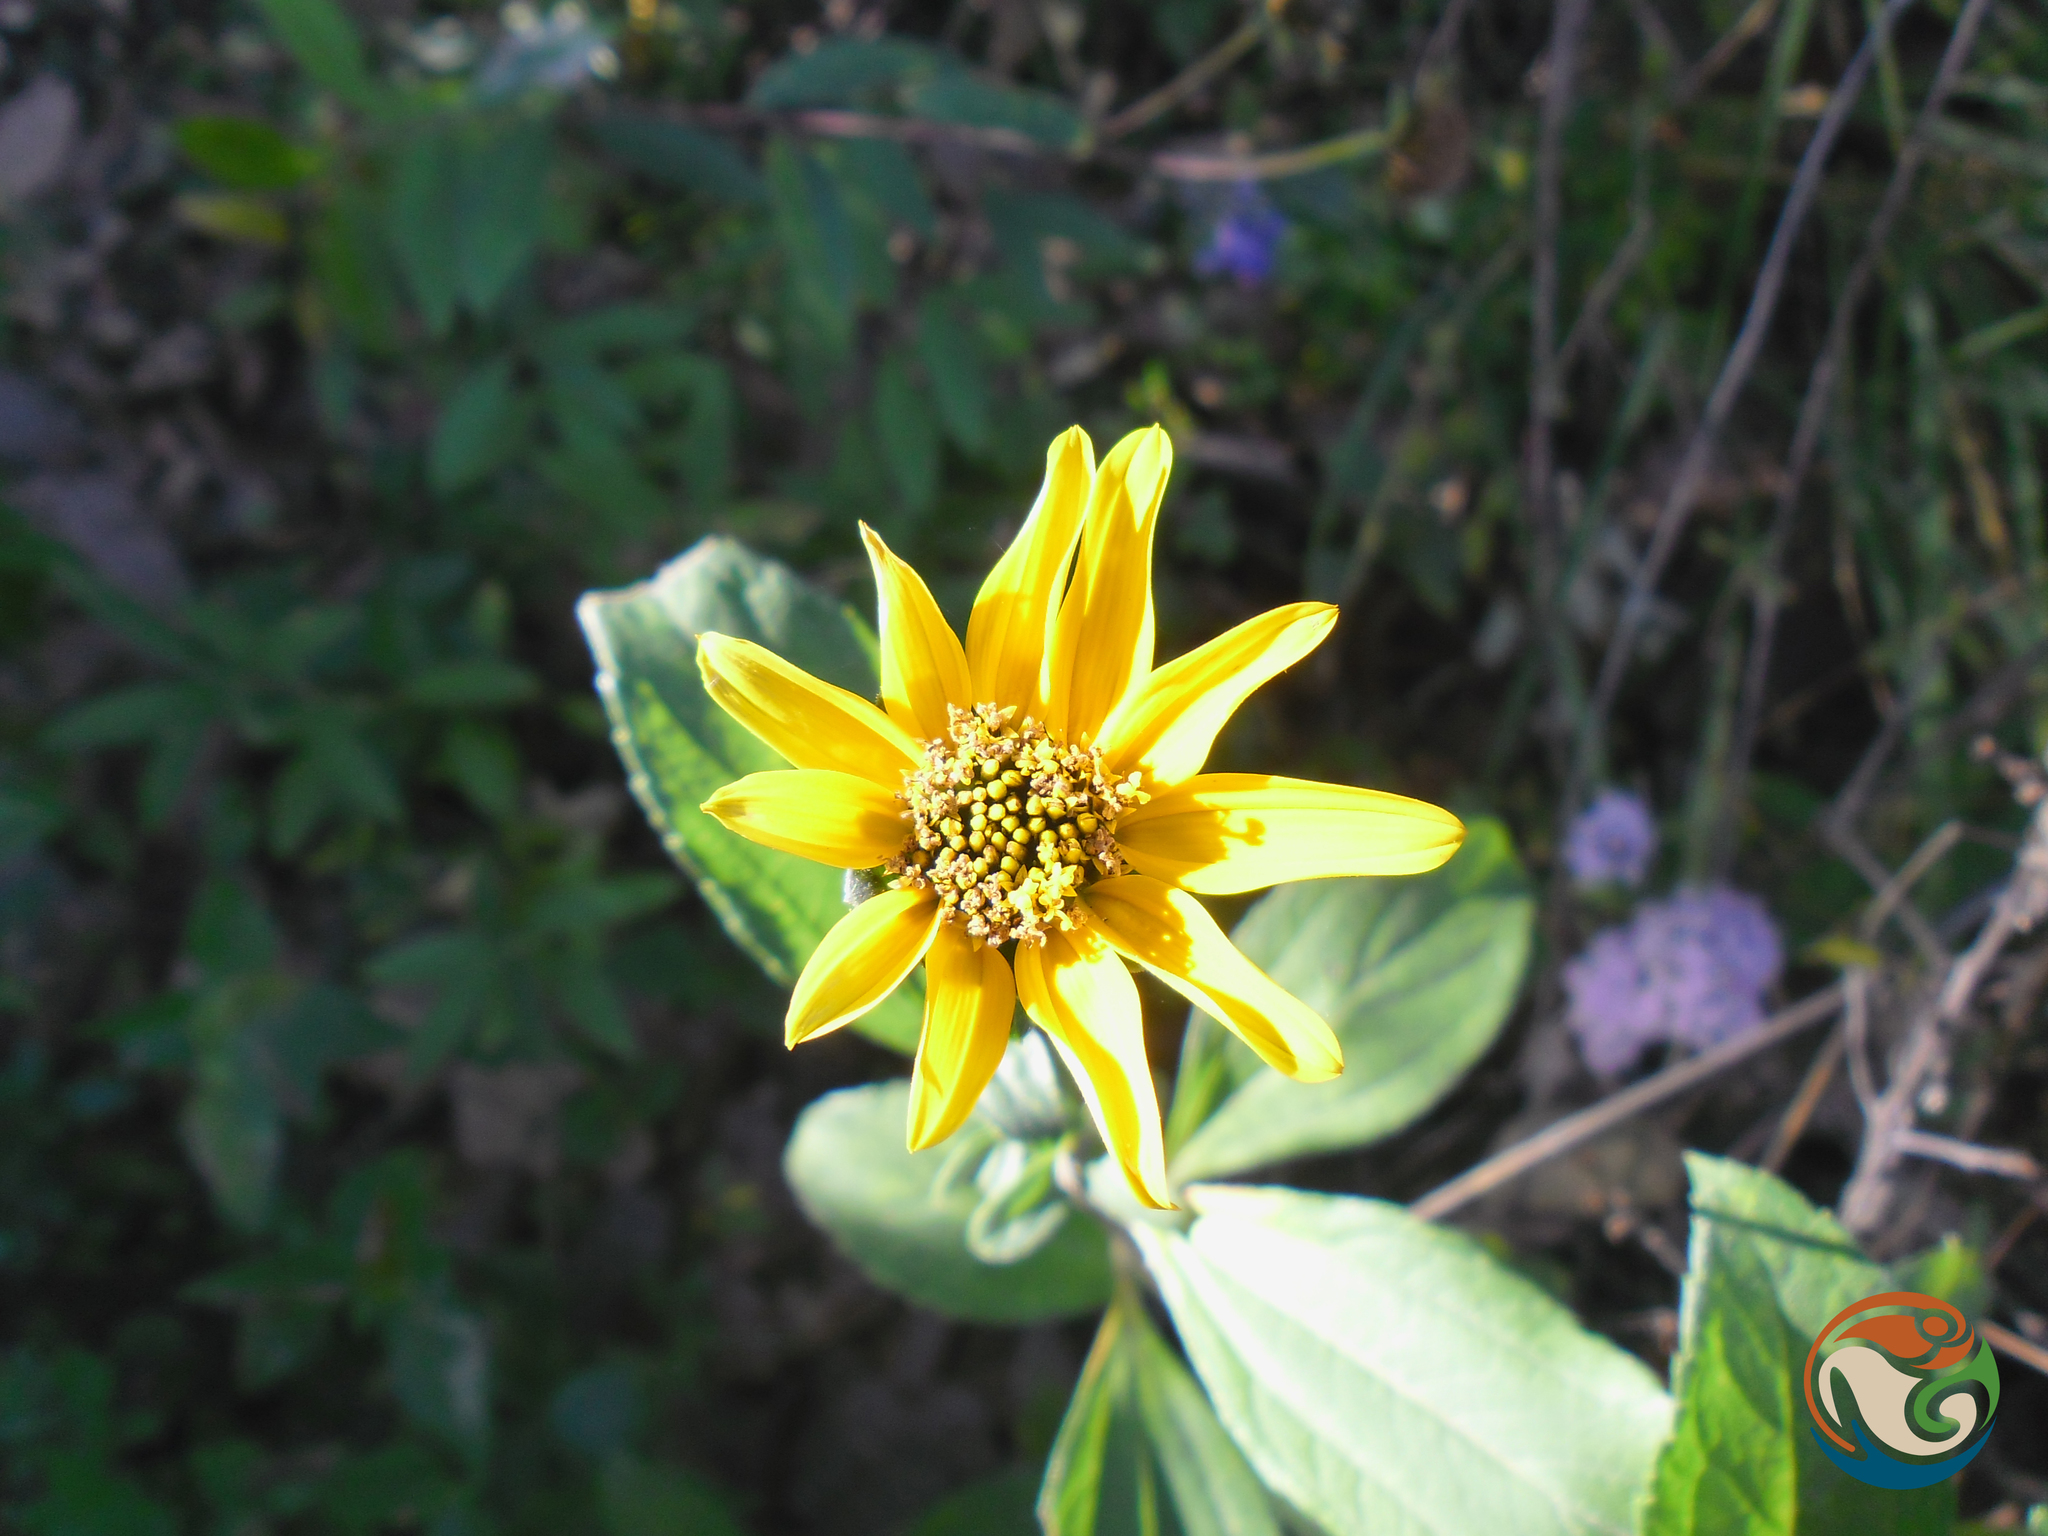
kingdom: Plantae
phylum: Tracheophyta
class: Magnoliopsida
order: Asterales
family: Asteraceae
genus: Aldama
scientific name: Aldama excelsa
